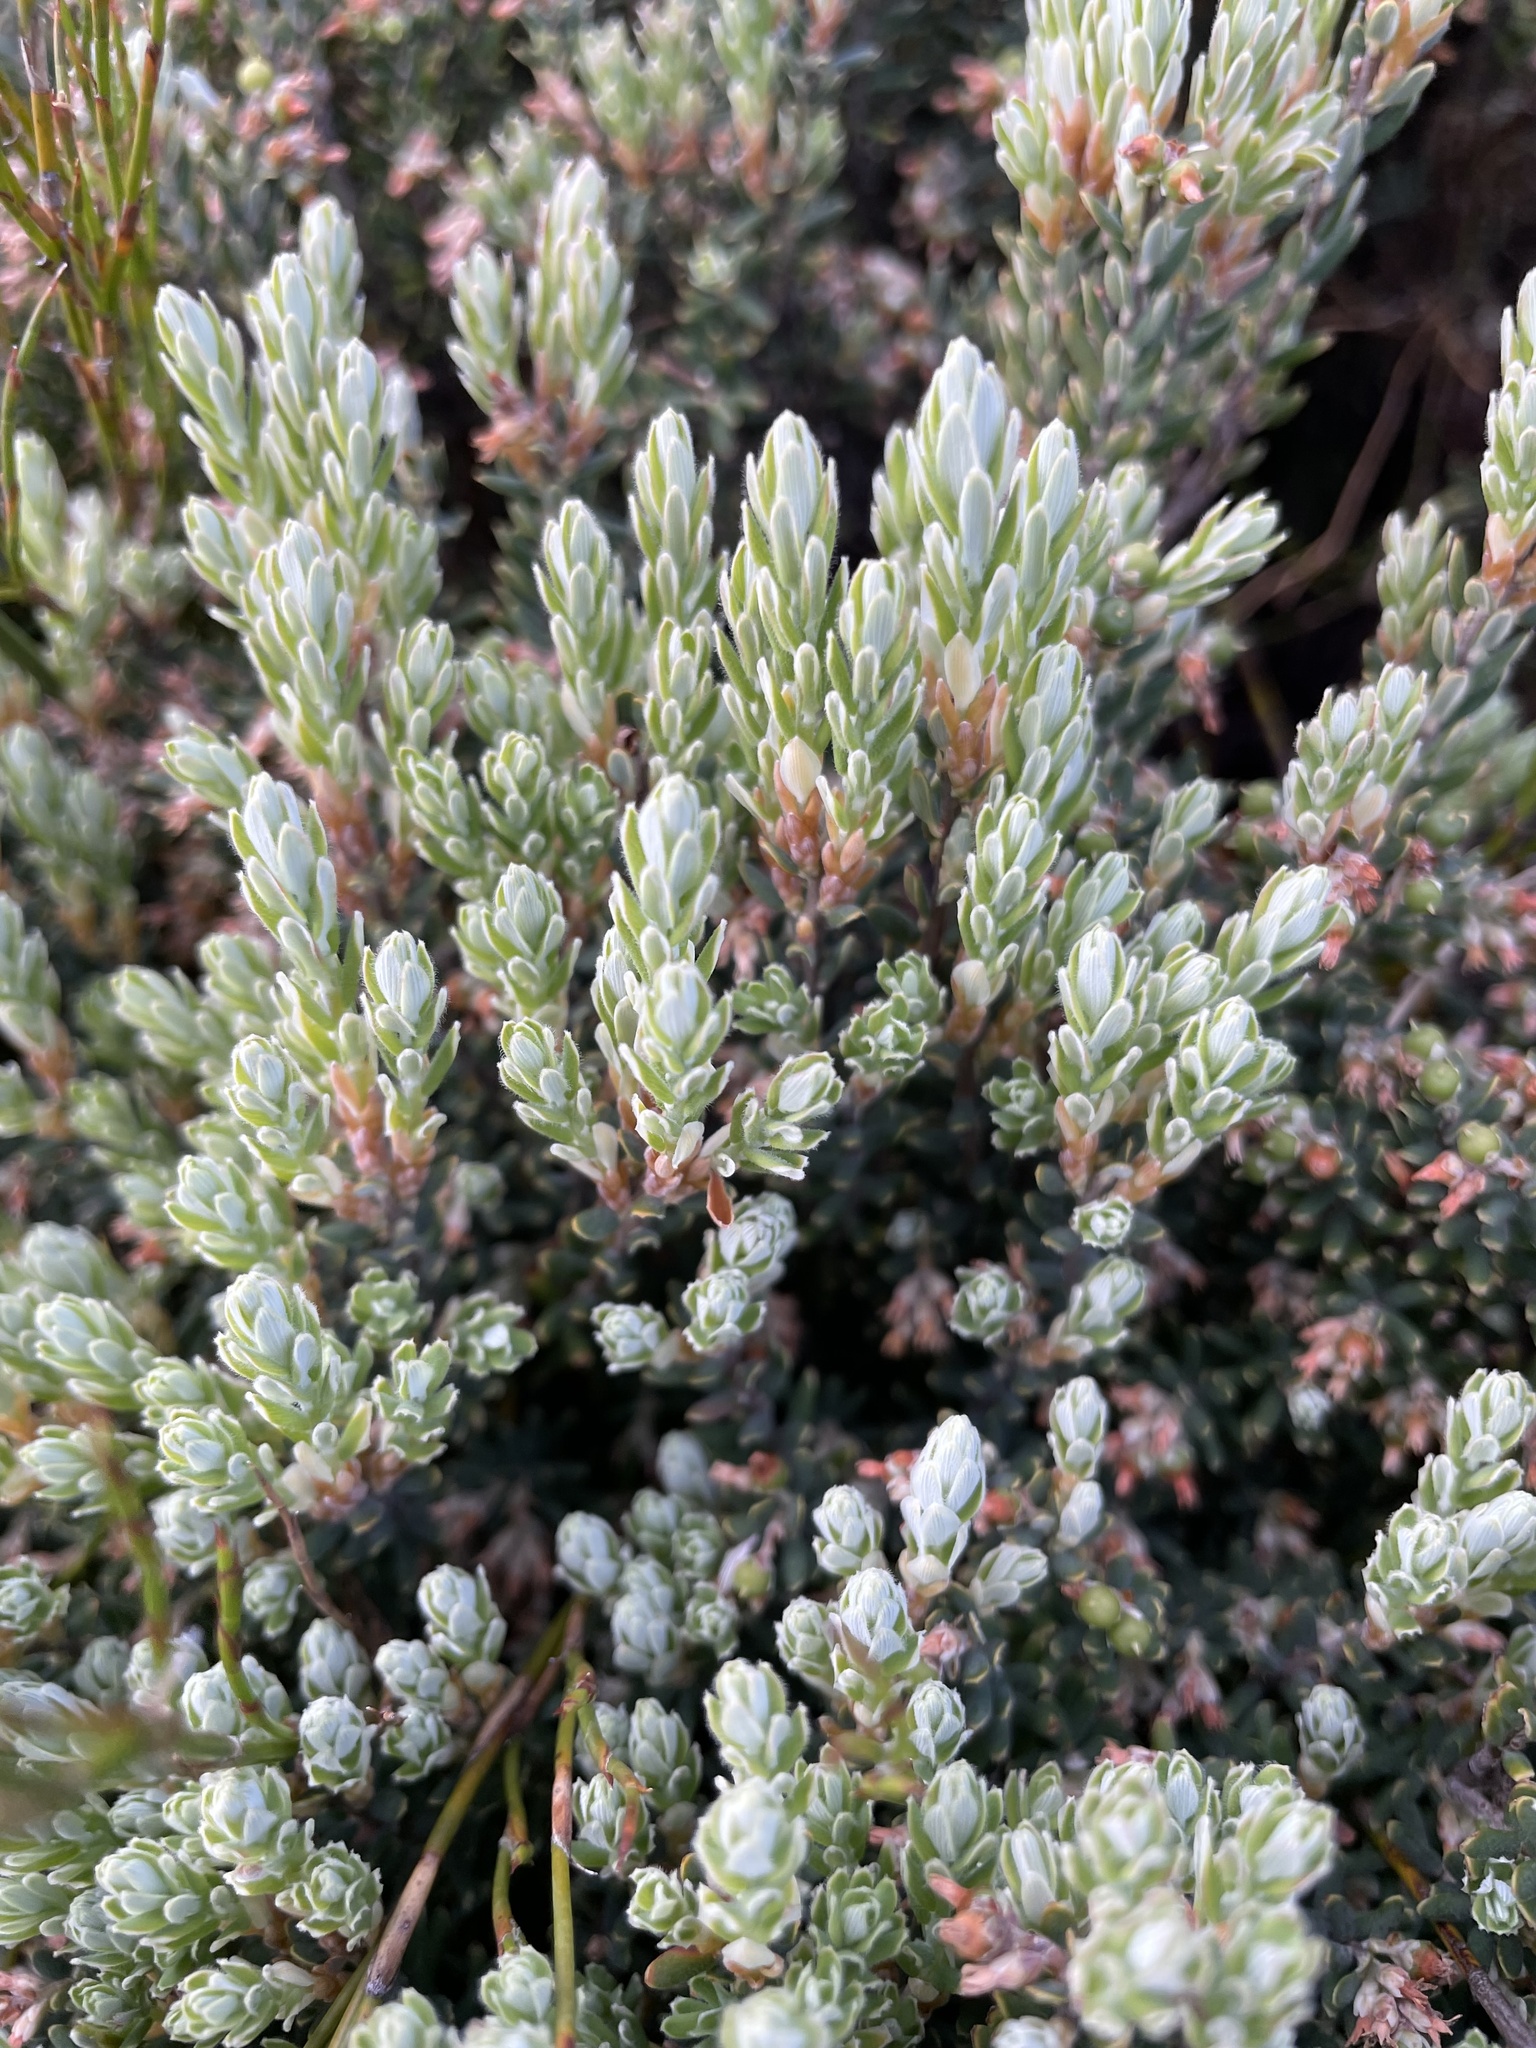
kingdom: Plantae
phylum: Tracheophyta
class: Magnoliopsida
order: Ericales
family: Ericaceae
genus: Acrothamnus
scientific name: Acrothamnus hookeri
